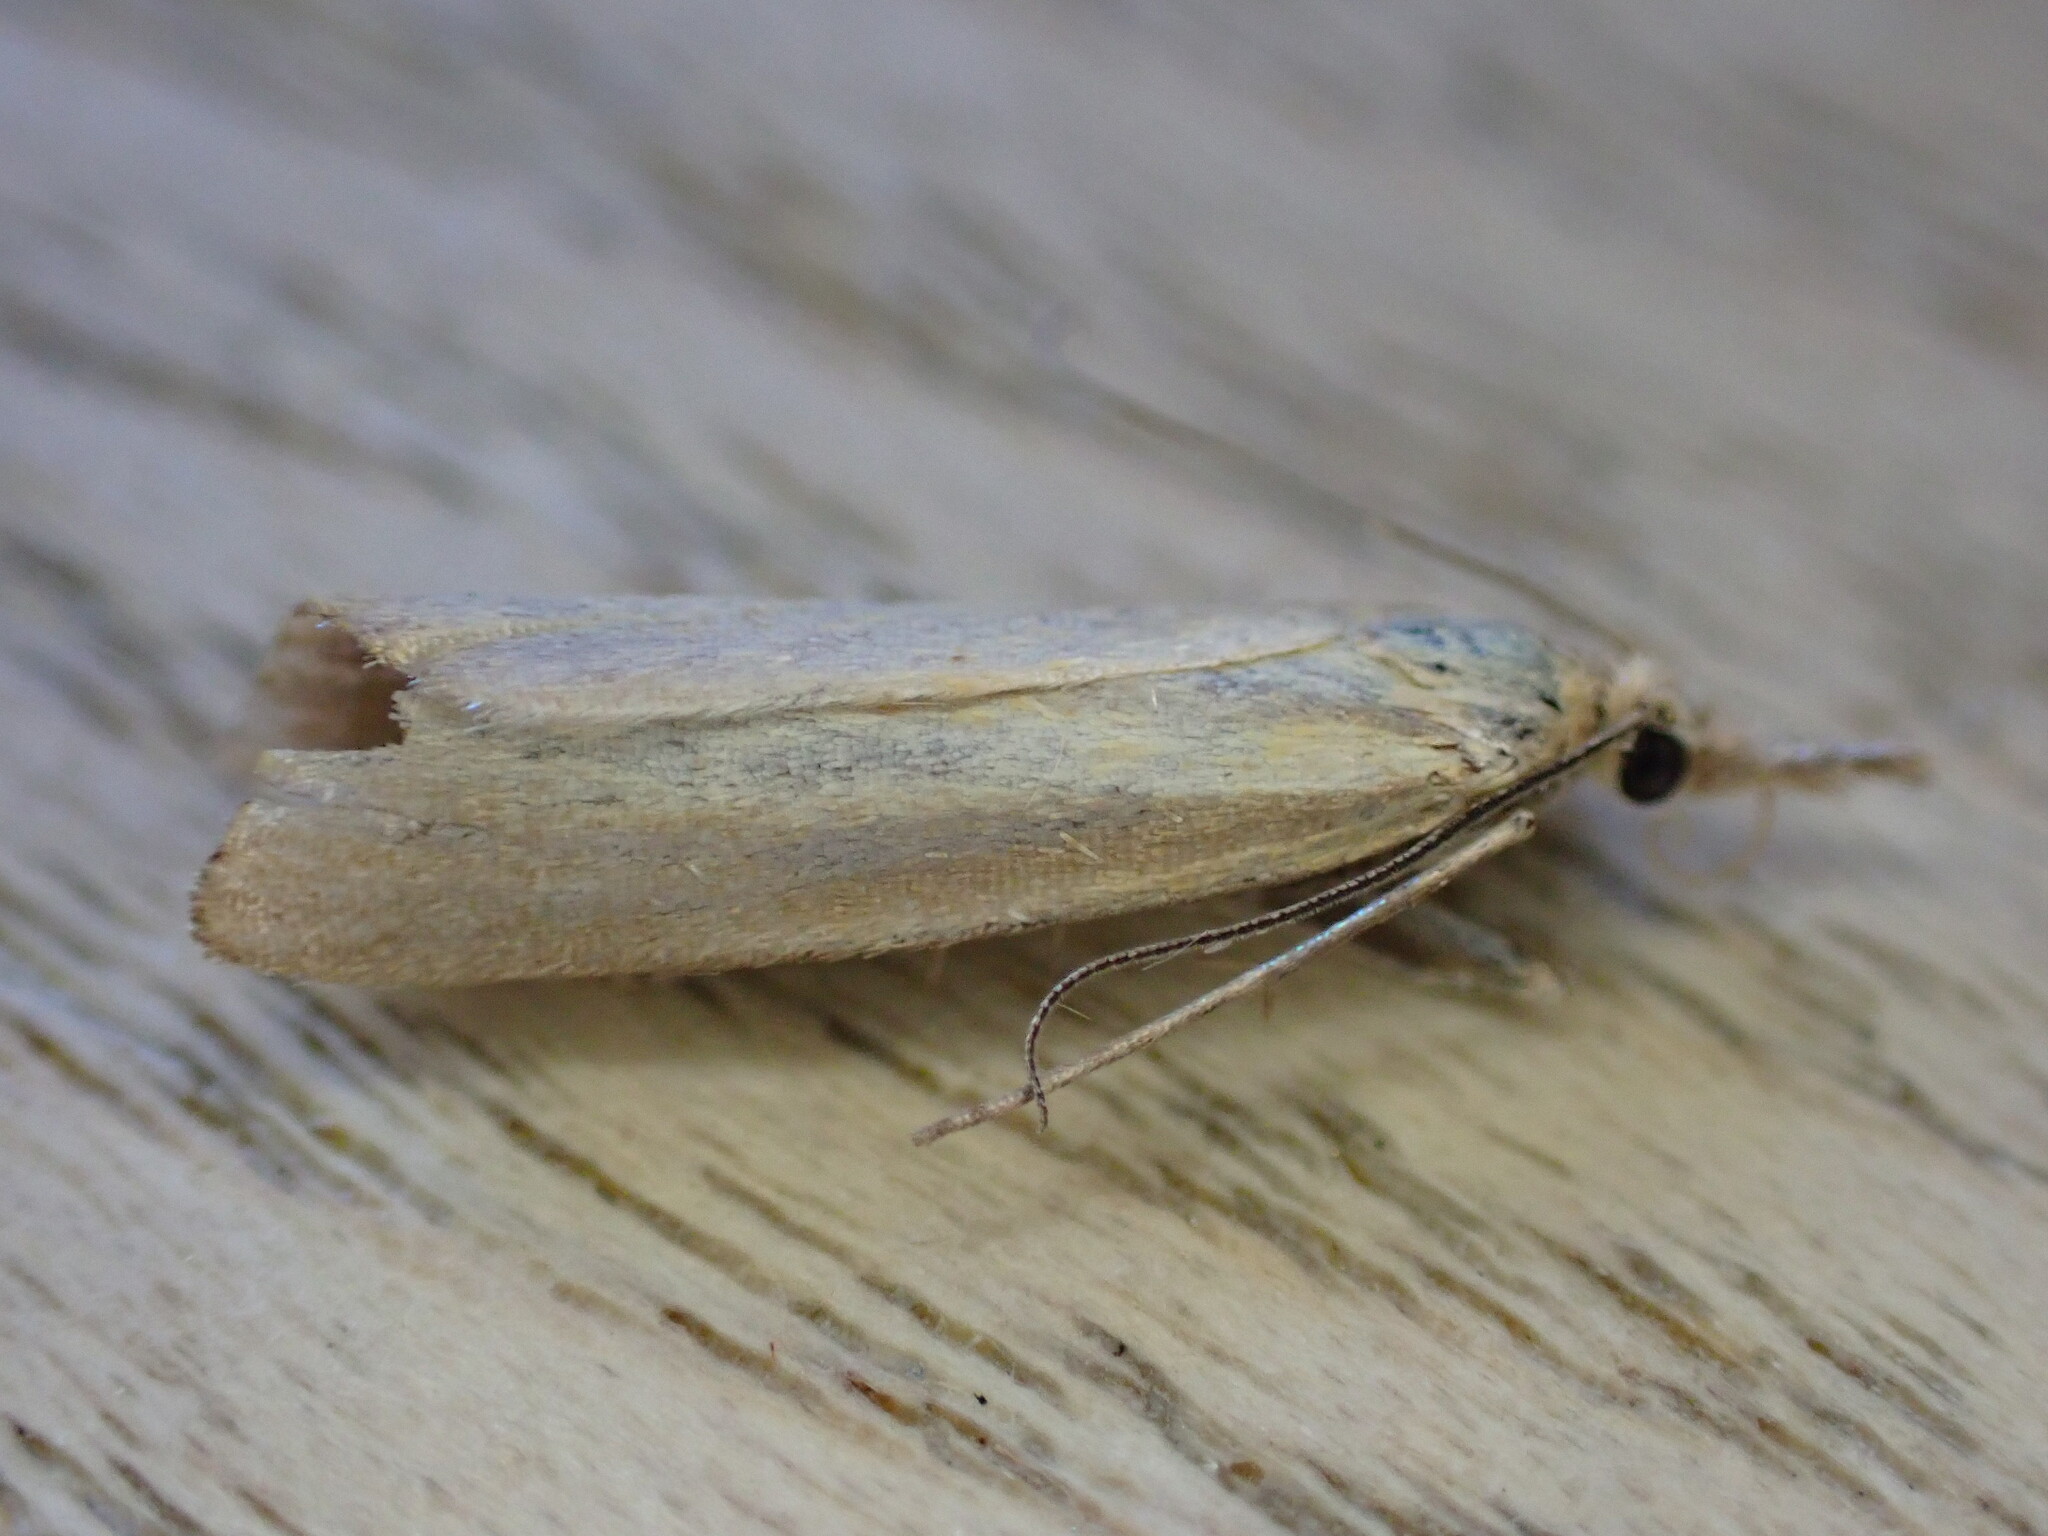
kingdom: Animalia
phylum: Arthropoda
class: Insecta
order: Lepidoptera
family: Crambidae
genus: Agriphila
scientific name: Agriphila straminella
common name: Straw grass-veneer
